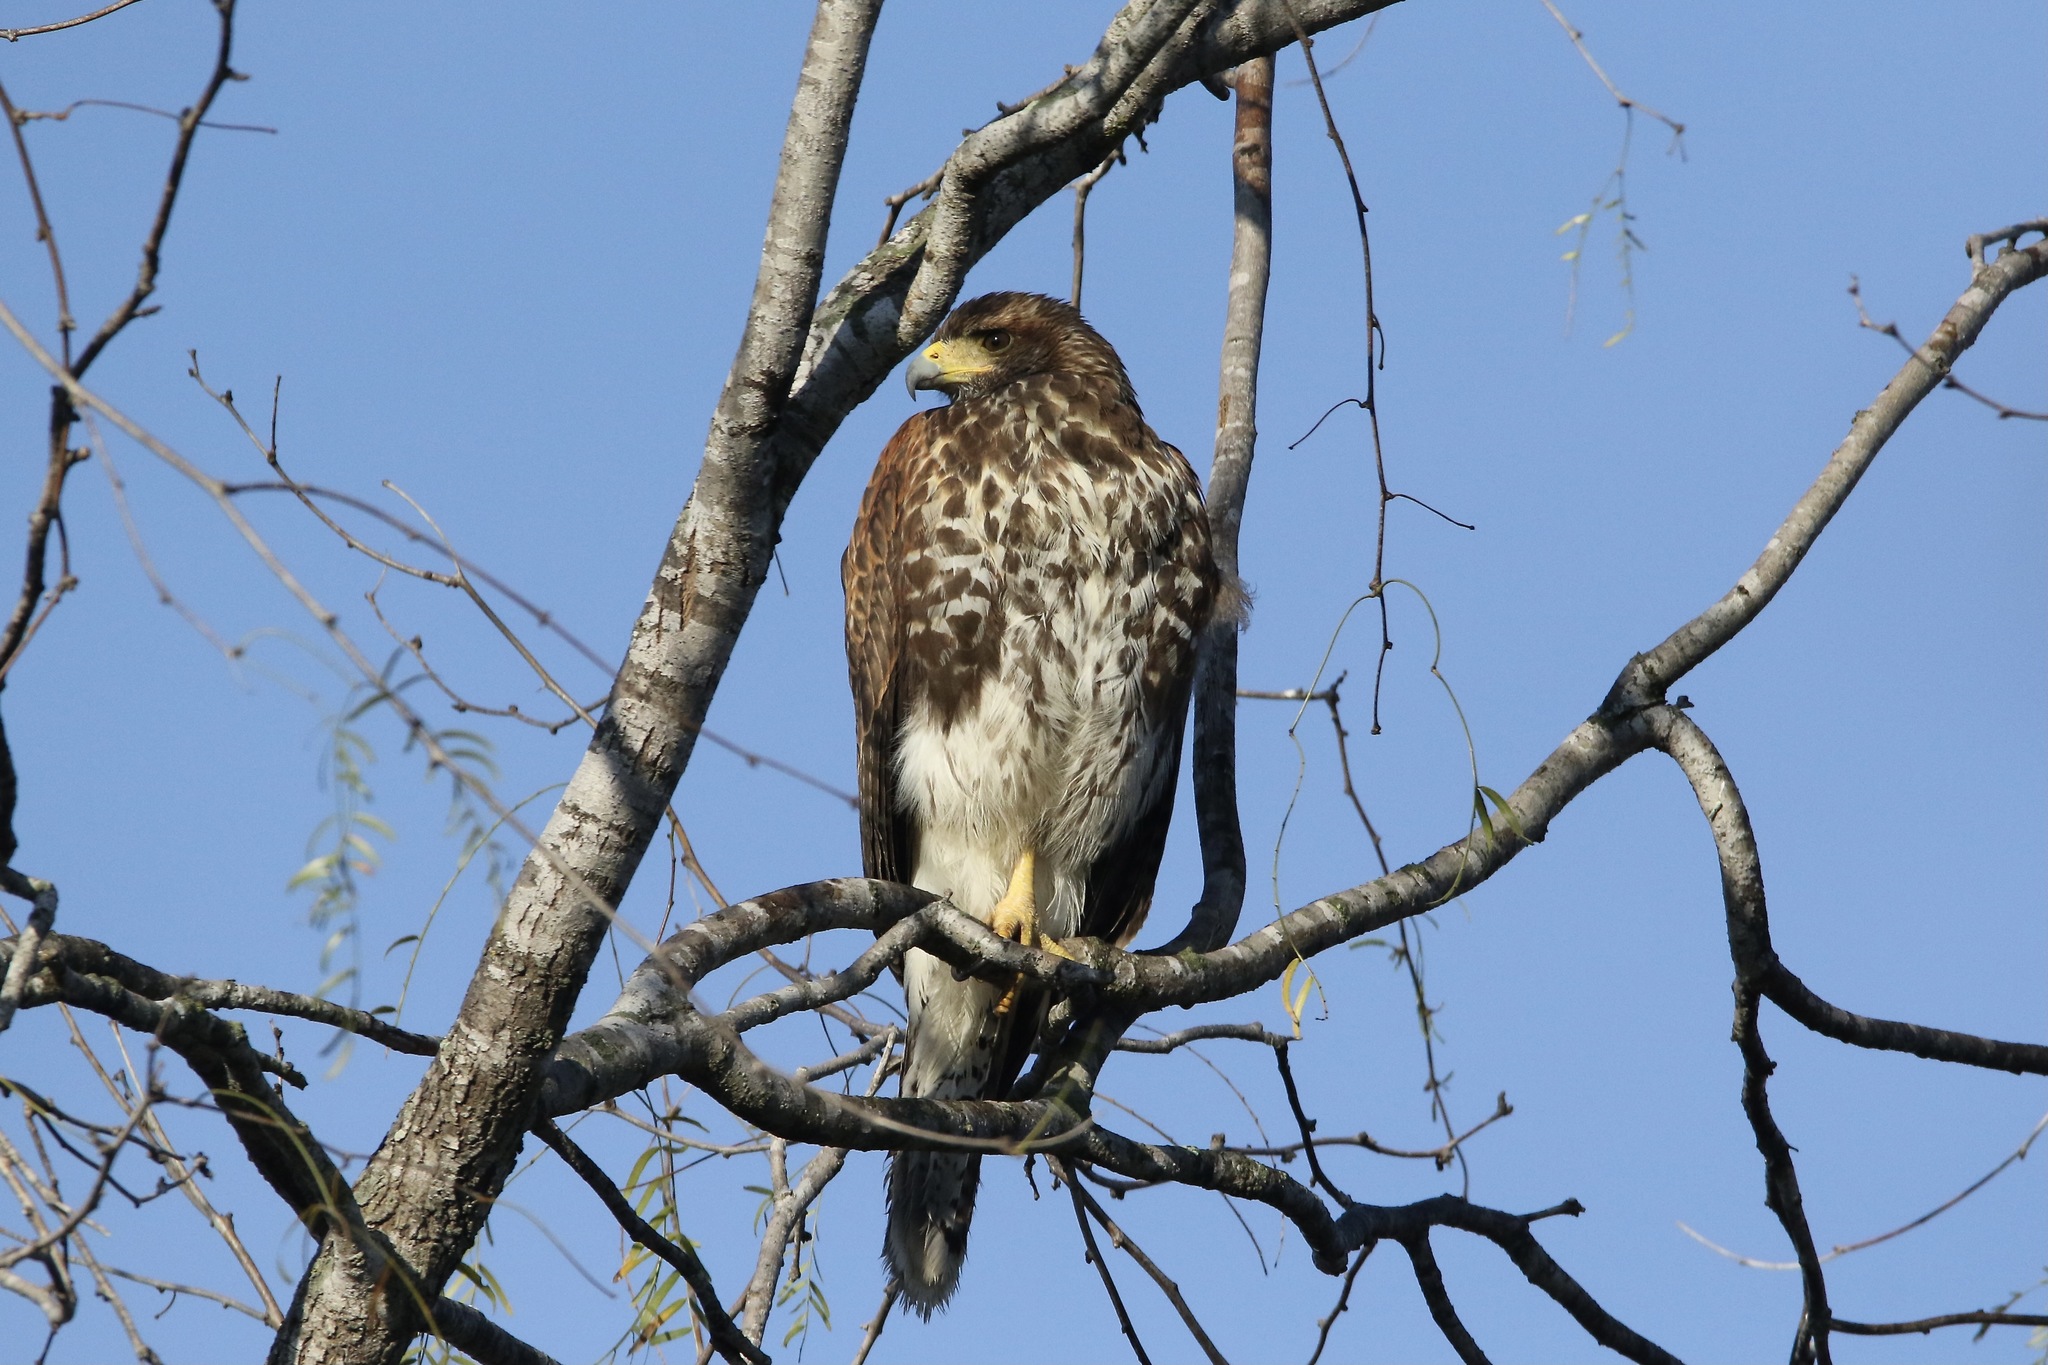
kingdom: Animalia
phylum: Chordata
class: Aves
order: Accipitriformes
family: Accipitridae
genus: Parabuteo
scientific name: Parabuteo unicinctus
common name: Harris's hawk
